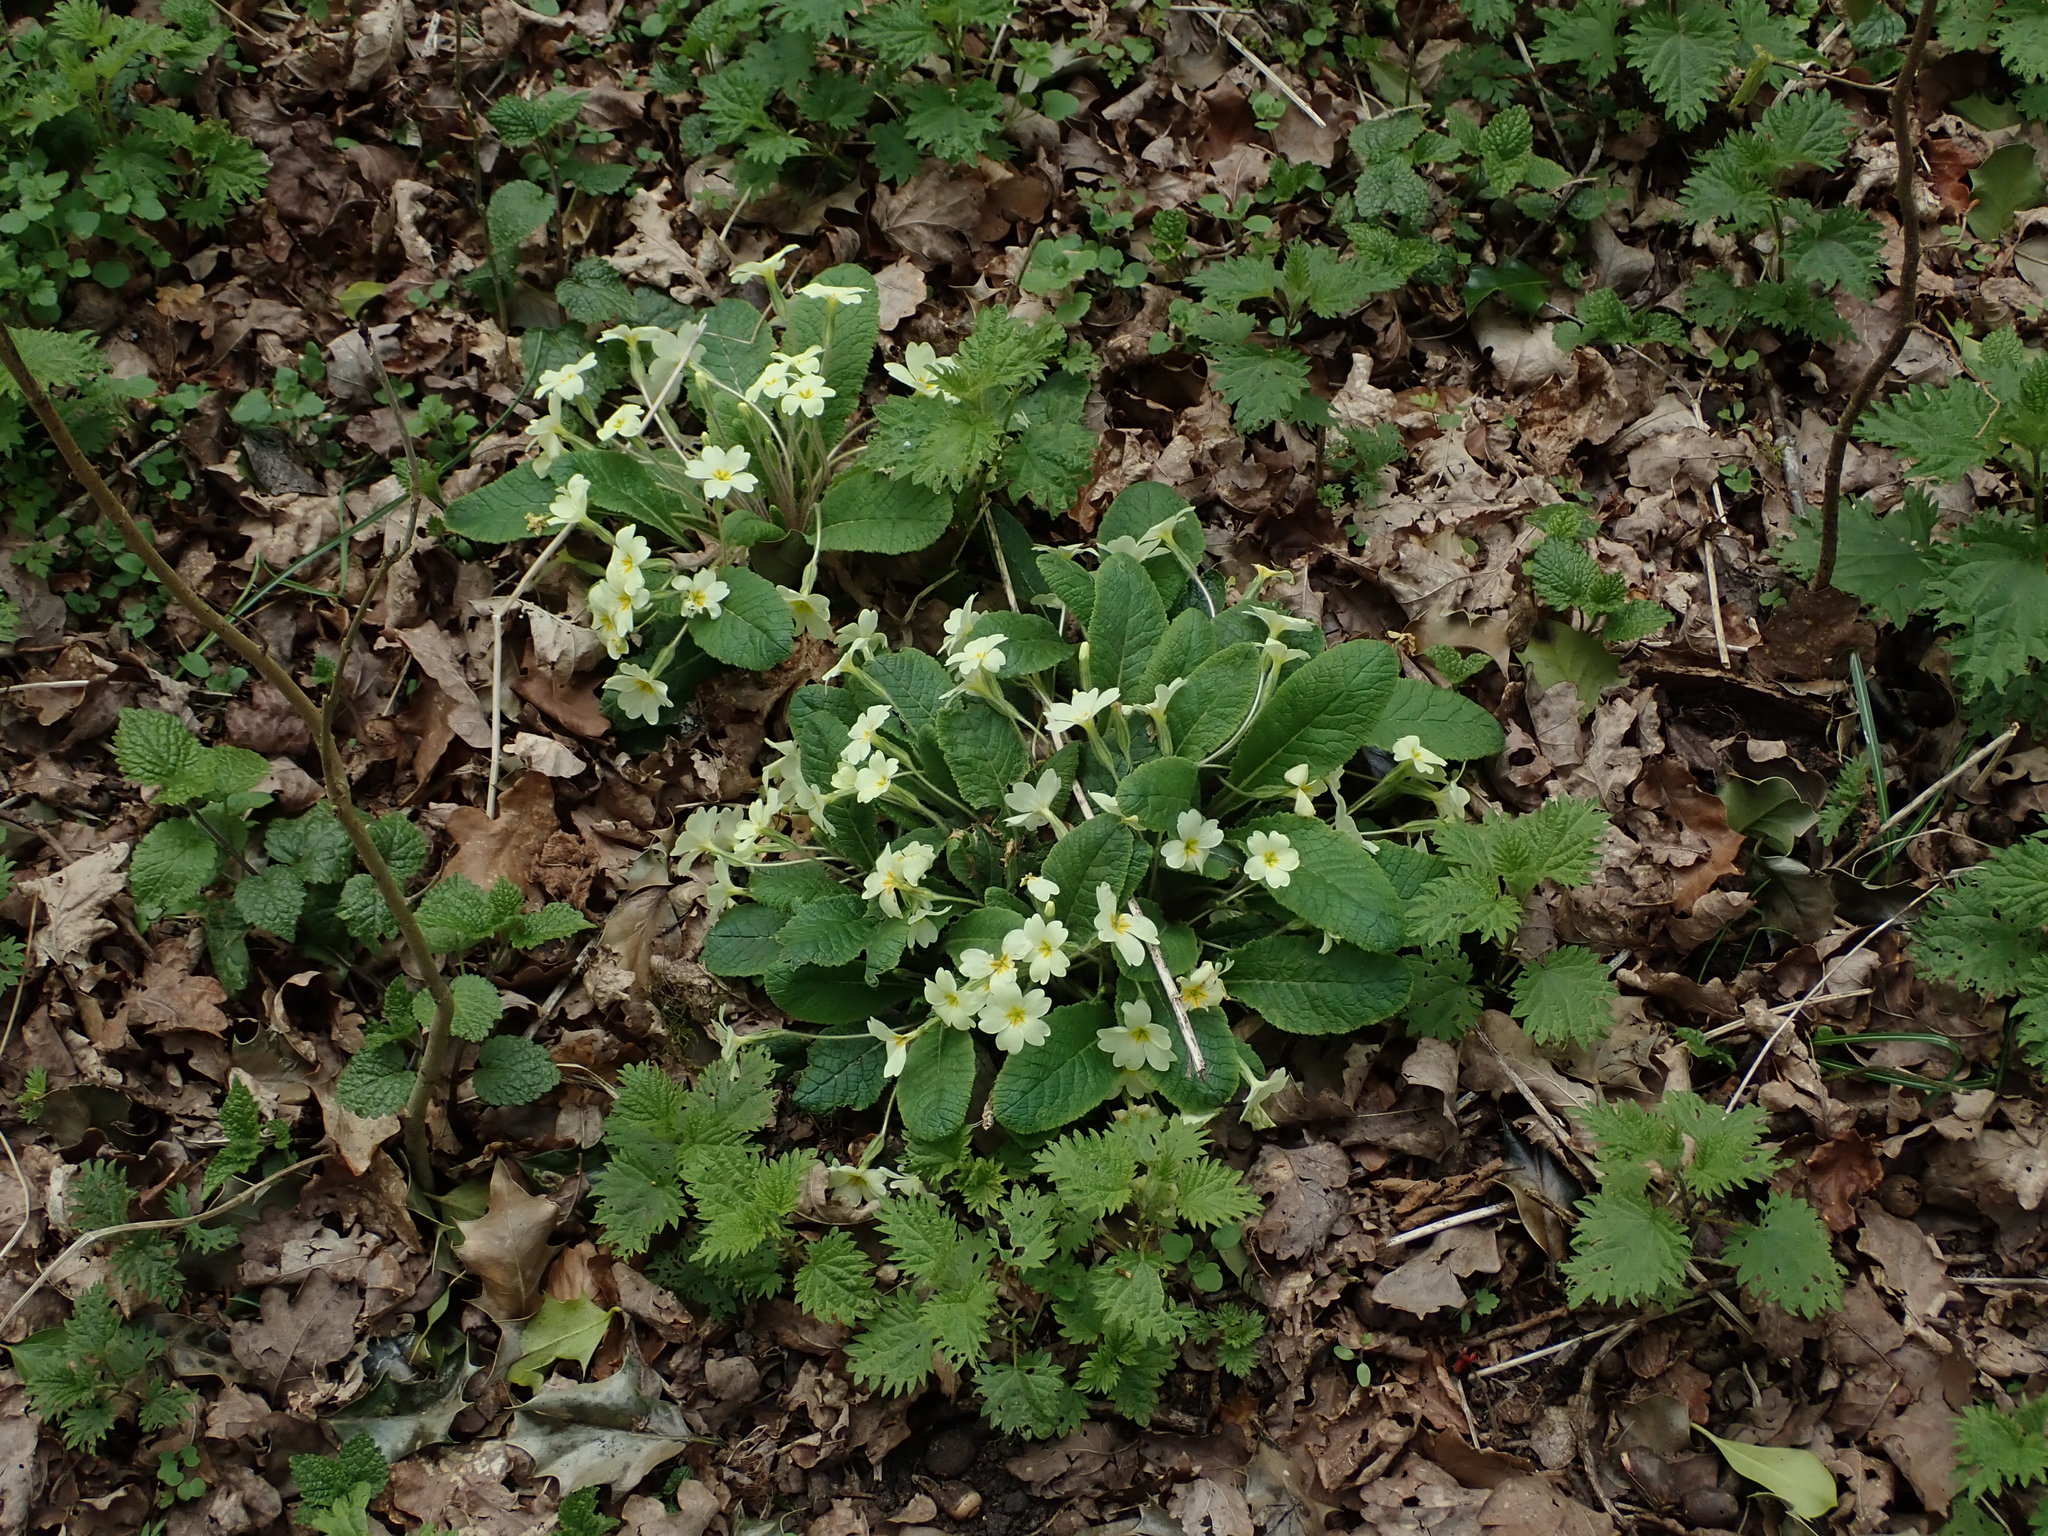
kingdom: Plantae
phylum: Tracheophyta
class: Magnoliopsida
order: Ericales
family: Primulaceae
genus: Primula
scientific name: Primula vulgaris
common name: Primrose
